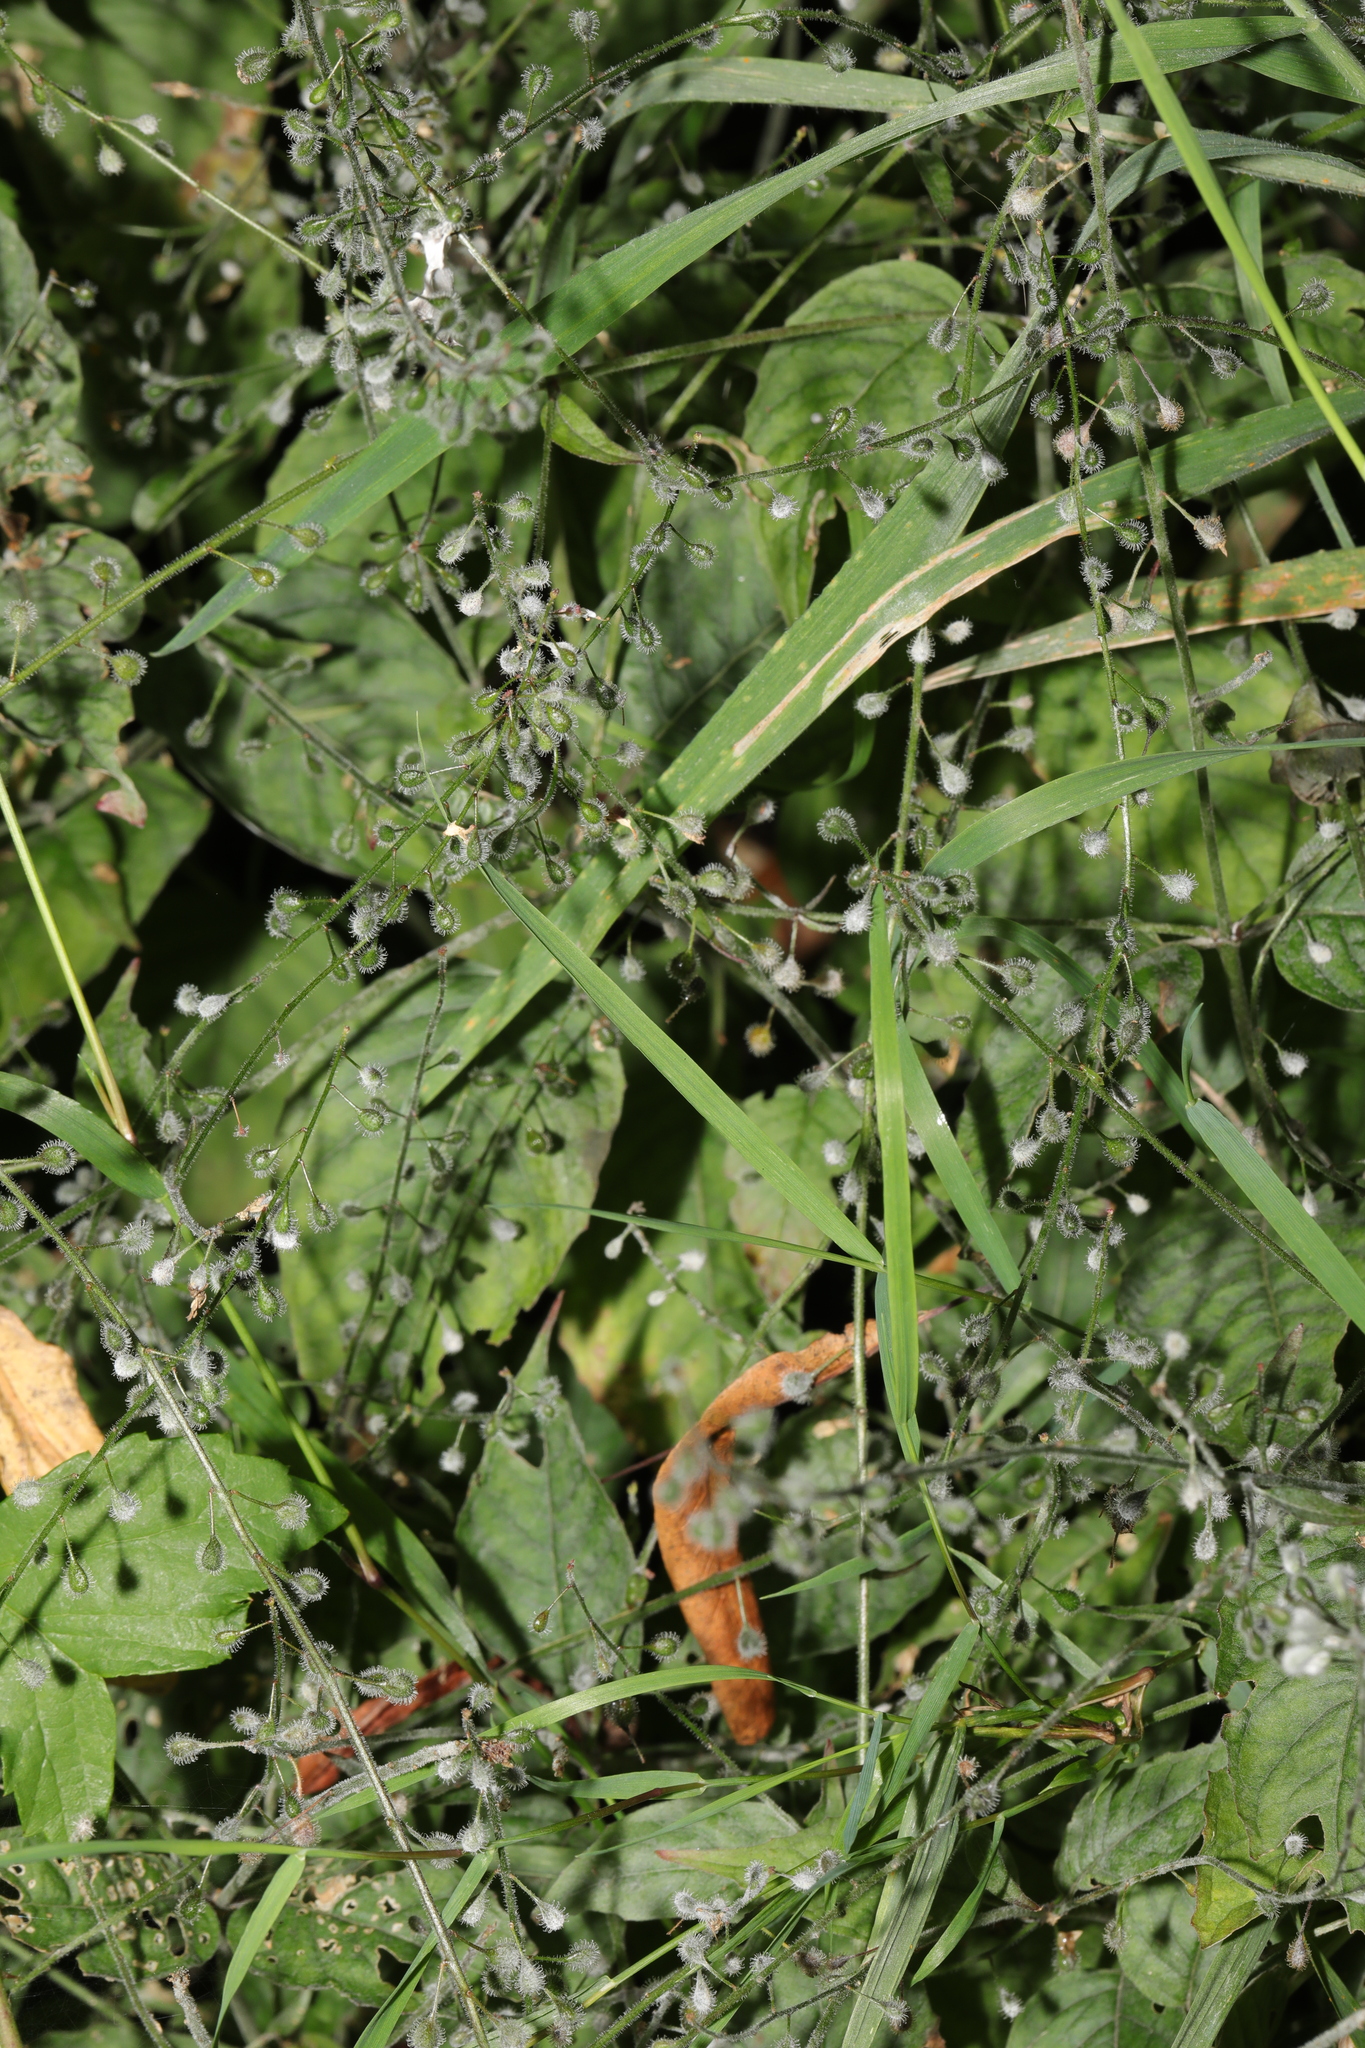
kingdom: Plantae
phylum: Tracheophyta
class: Magnoliopsida
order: Myrtales
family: Onagraceae
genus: Circaea
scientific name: Circaea lutetiana
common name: Enchanter's-nightshade
